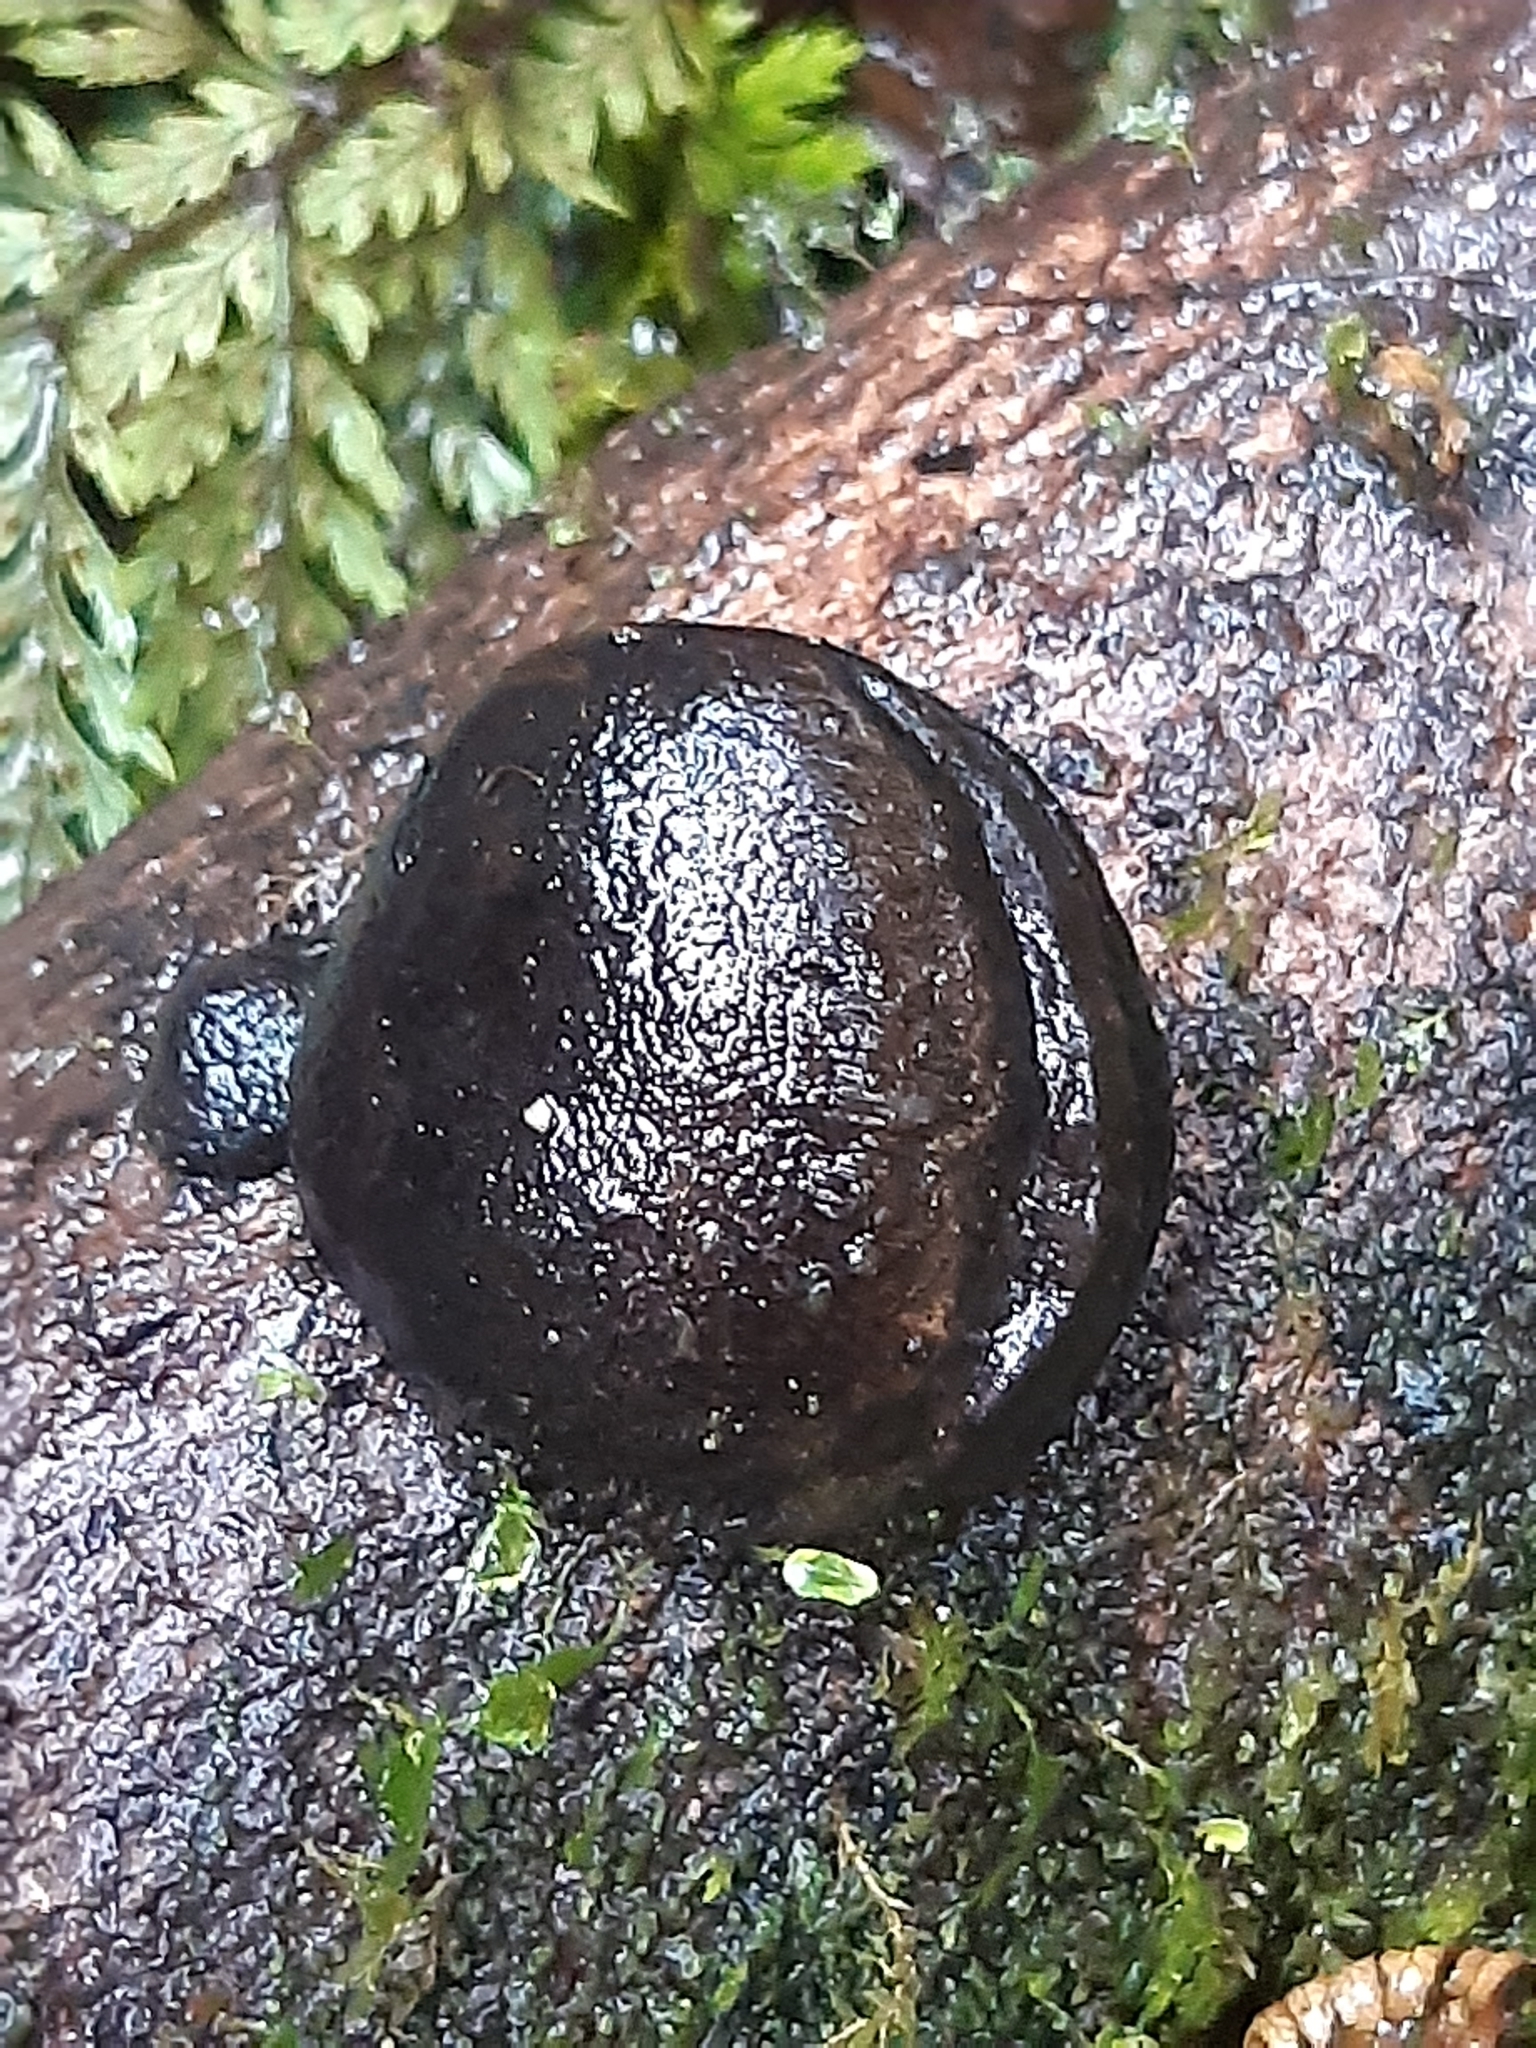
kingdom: Fungi
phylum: Ascomycota
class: Sordariomycetes
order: Xylariales
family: Hypoxylaceae
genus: Daldinia
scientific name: Daldinia
